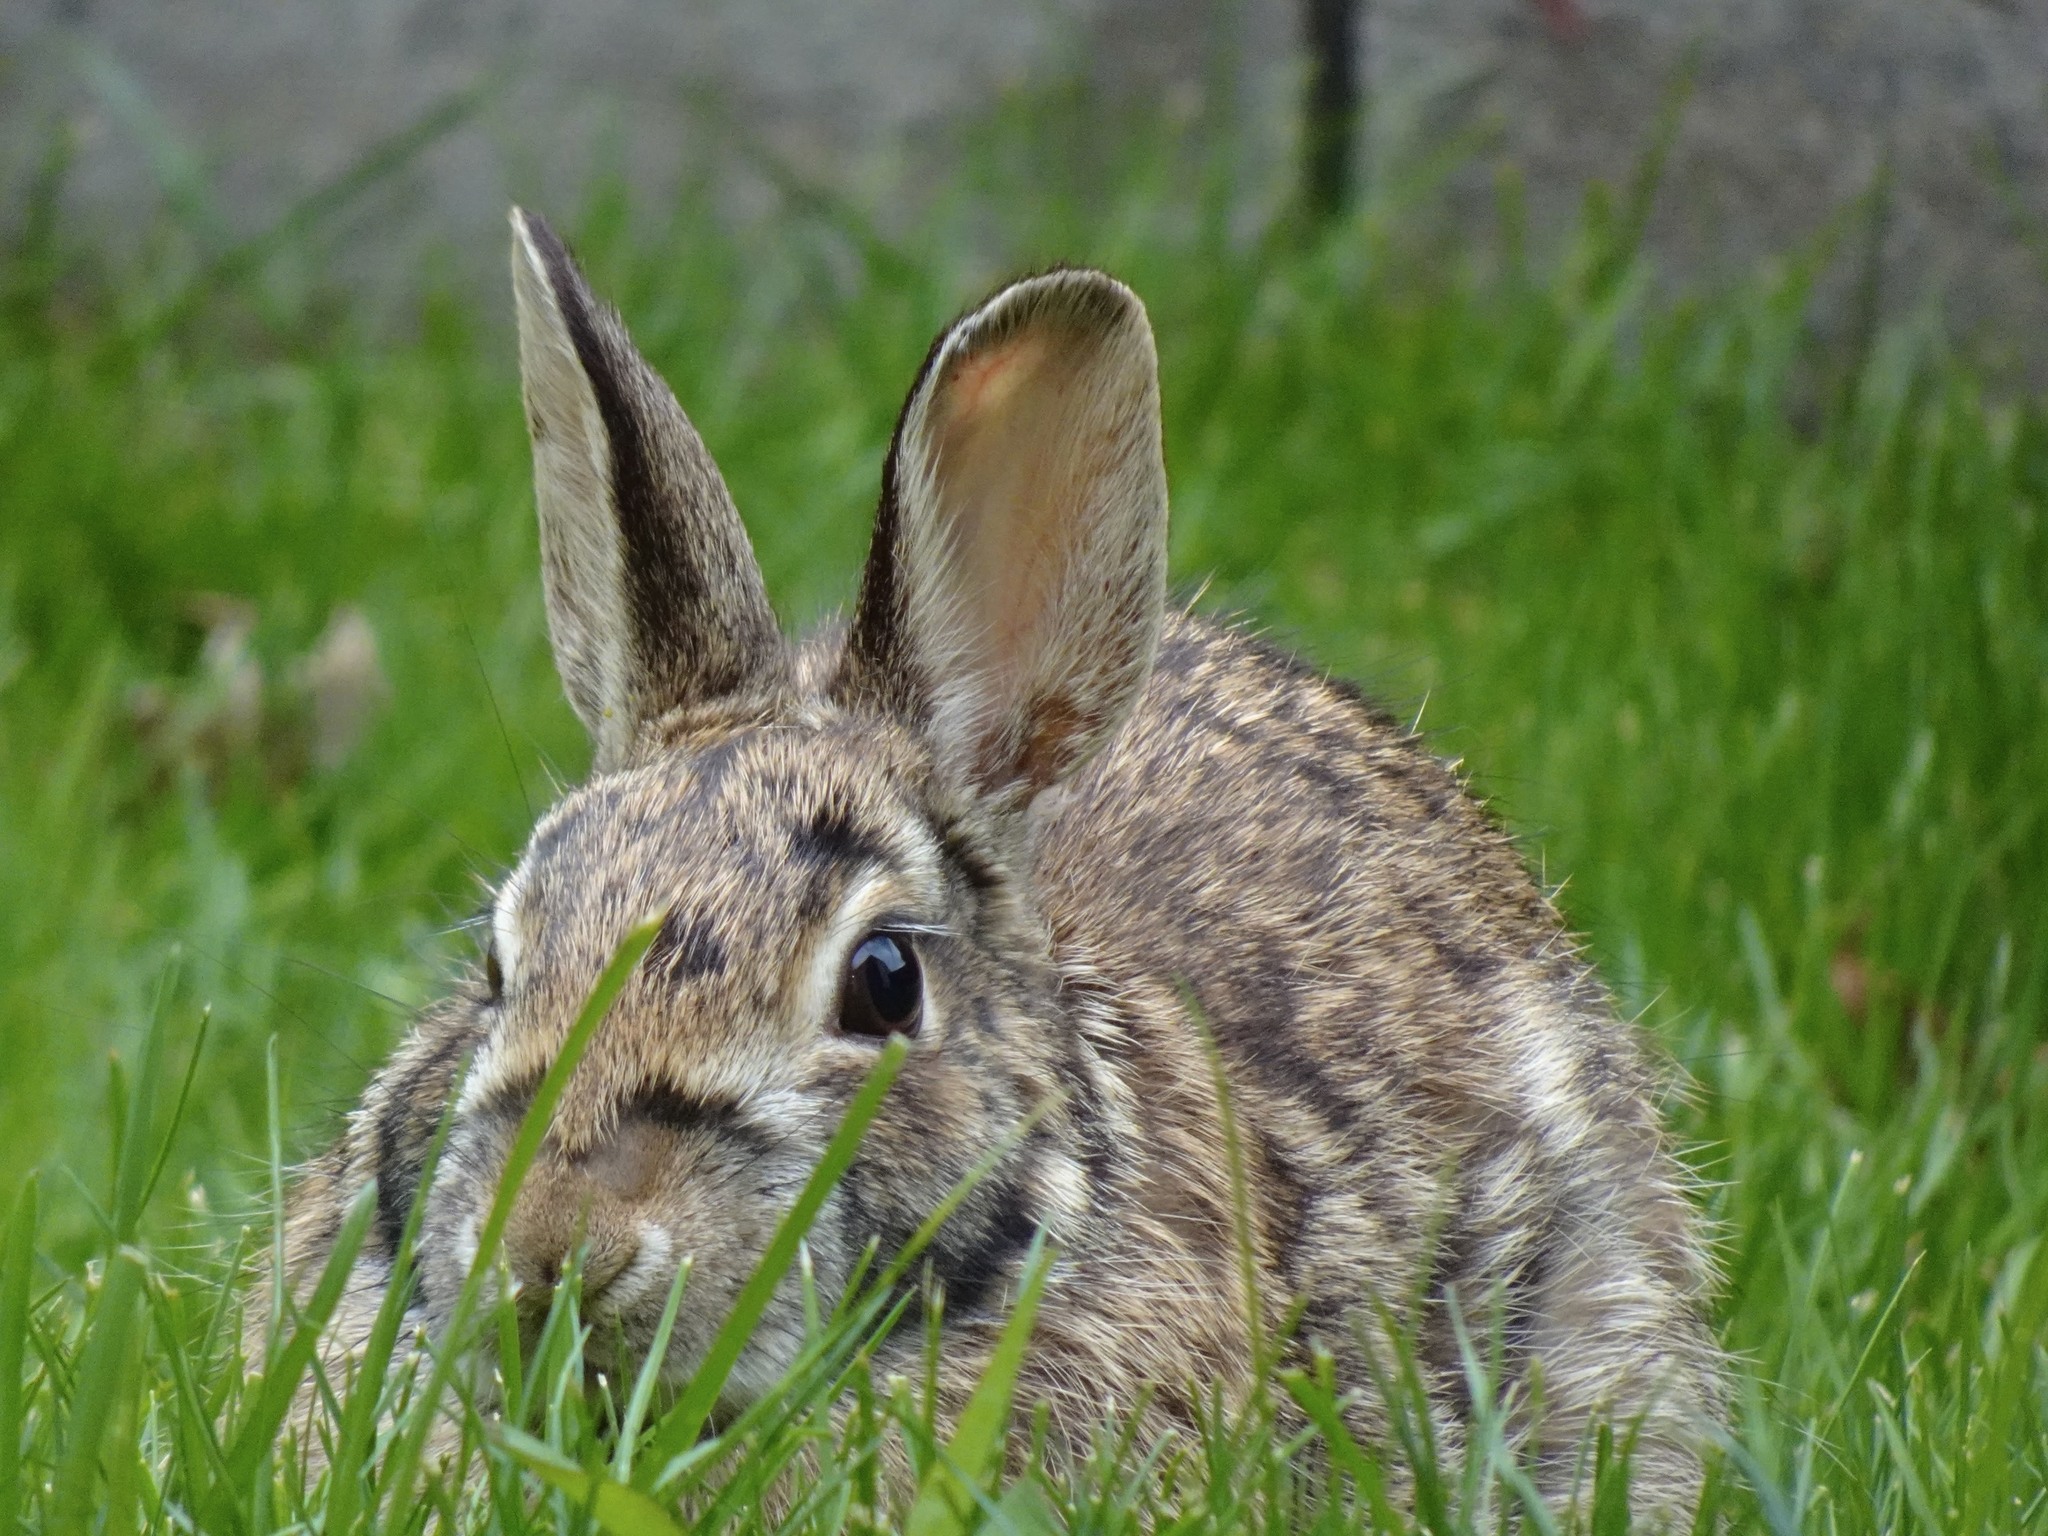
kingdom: Animalia
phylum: Chordata
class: Mammalia
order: Lagomorpha
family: Leporidae
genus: Sylvilagus
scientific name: Sylvilagus floridanus
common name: Eastern cottontail
